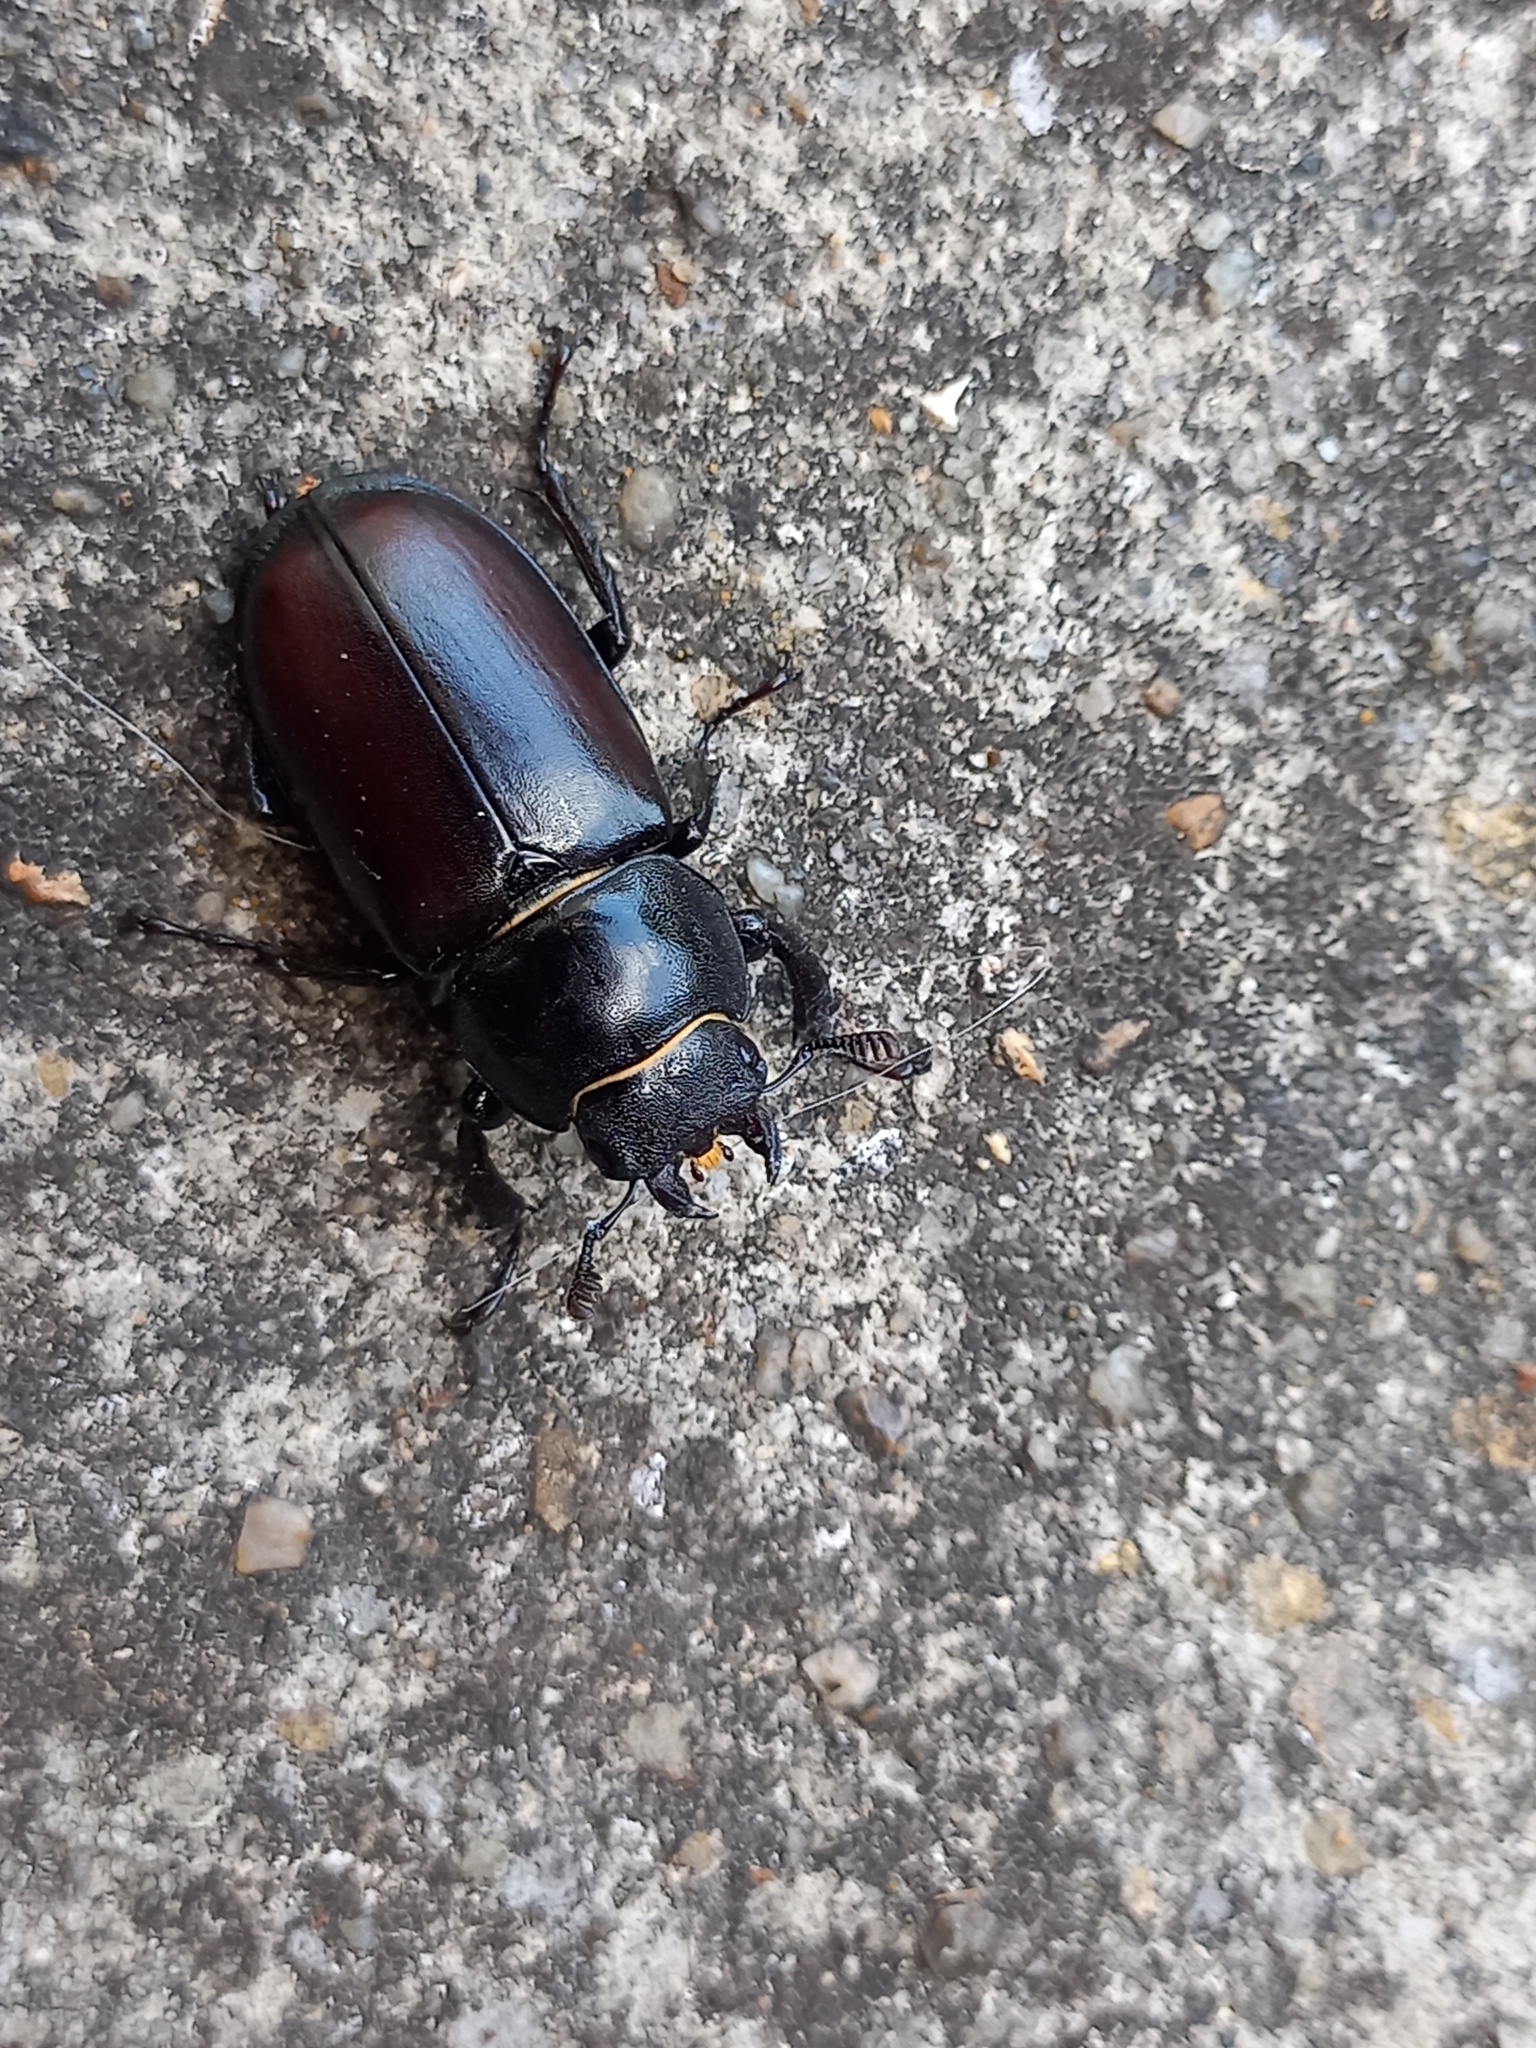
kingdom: Animalia
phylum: Arthropoda
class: Insecta
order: Coleoptera
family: Lucanidae
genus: Lucanus
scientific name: Lucanus cervus
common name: Stag beetle
